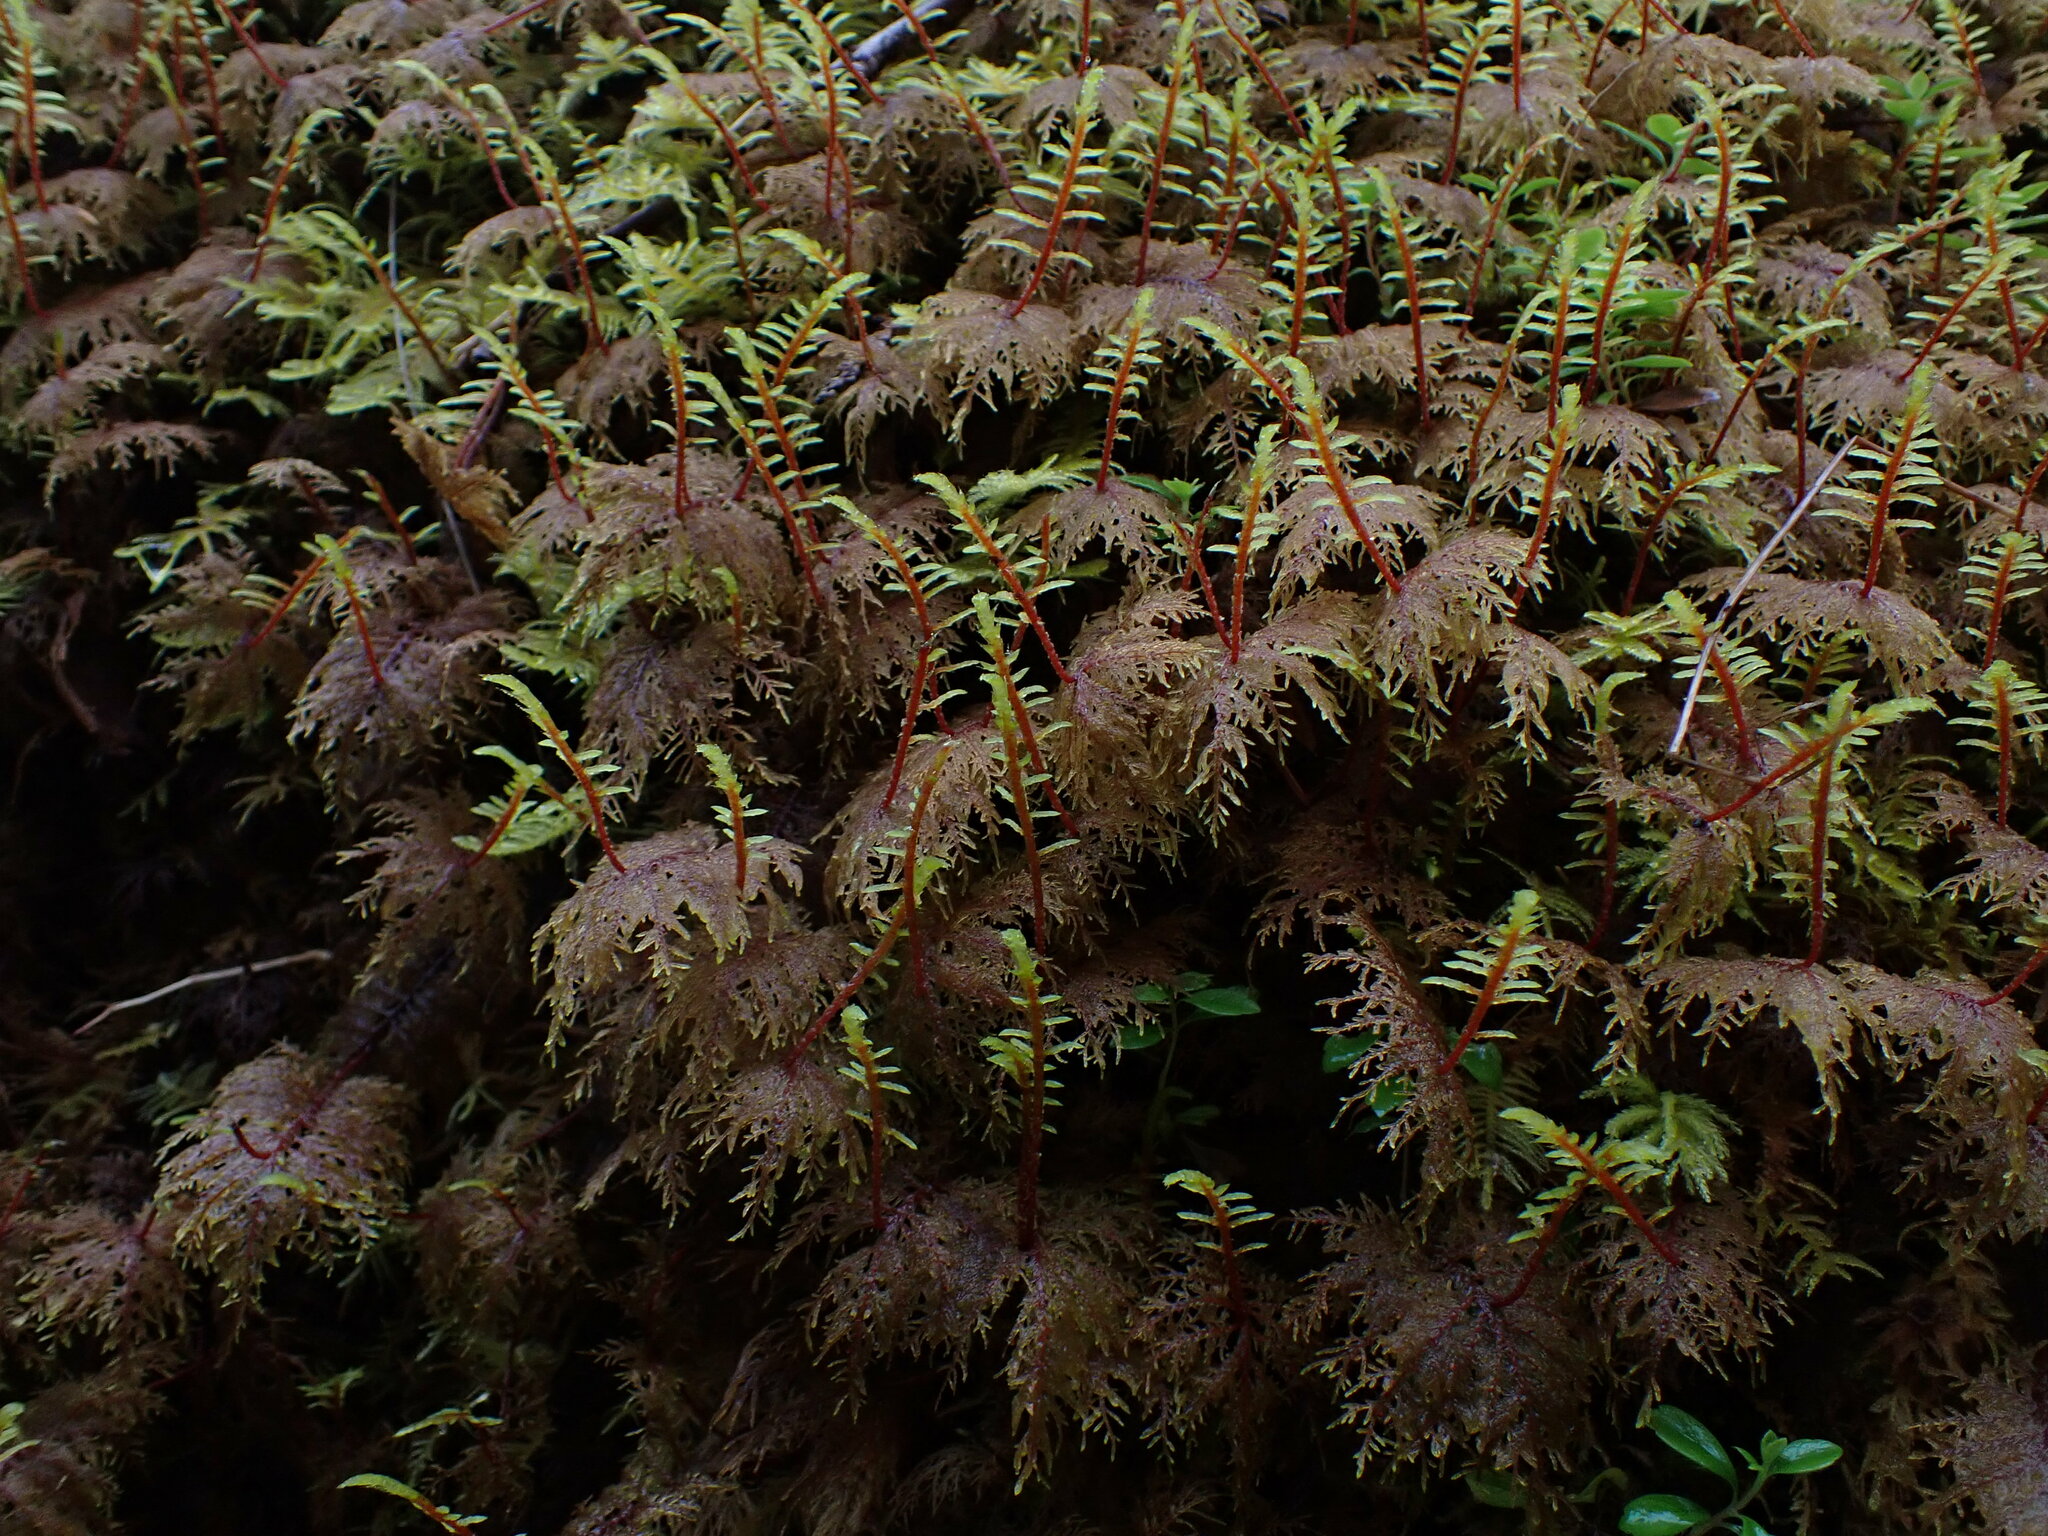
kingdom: Plantae
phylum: Bryophyta
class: Bryopsida
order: Hypnales
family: Hylocomiaceae
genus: Hylocomium
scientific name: Hylocomium splendens
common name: Stairstep moss
